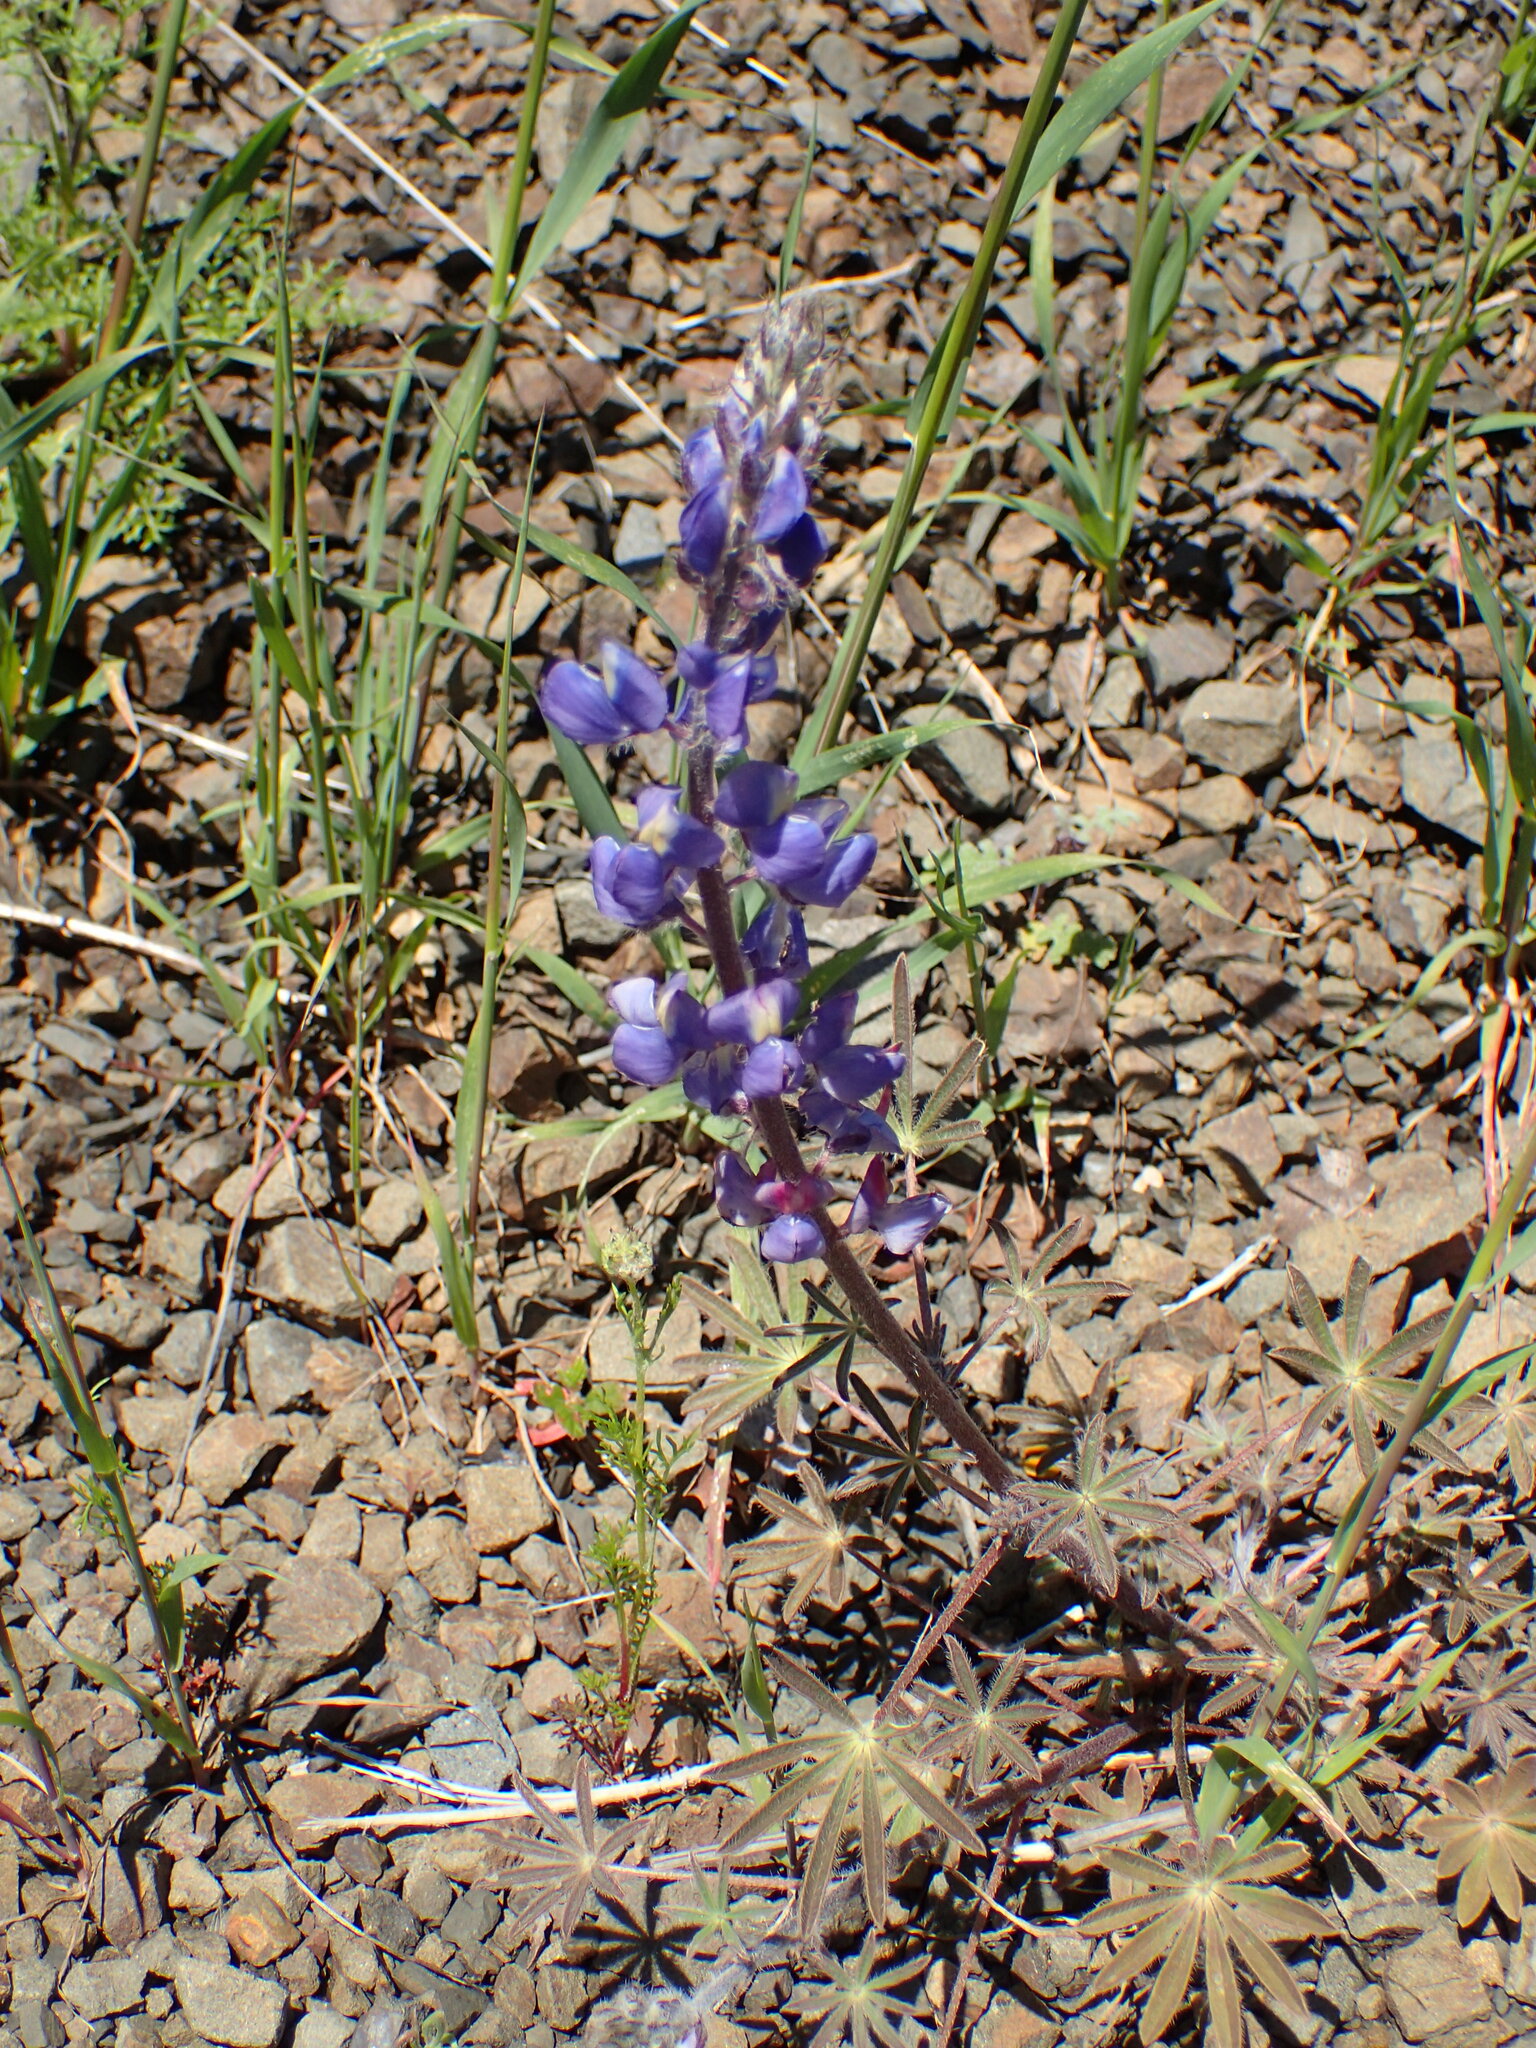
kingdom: Plantae
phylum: Tracheophyta
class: Magnoliopsida
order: Fabales
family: Fabaceae
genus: Lupinus
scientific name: Lupinus sparsiflorus
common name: Coulter's lupine
